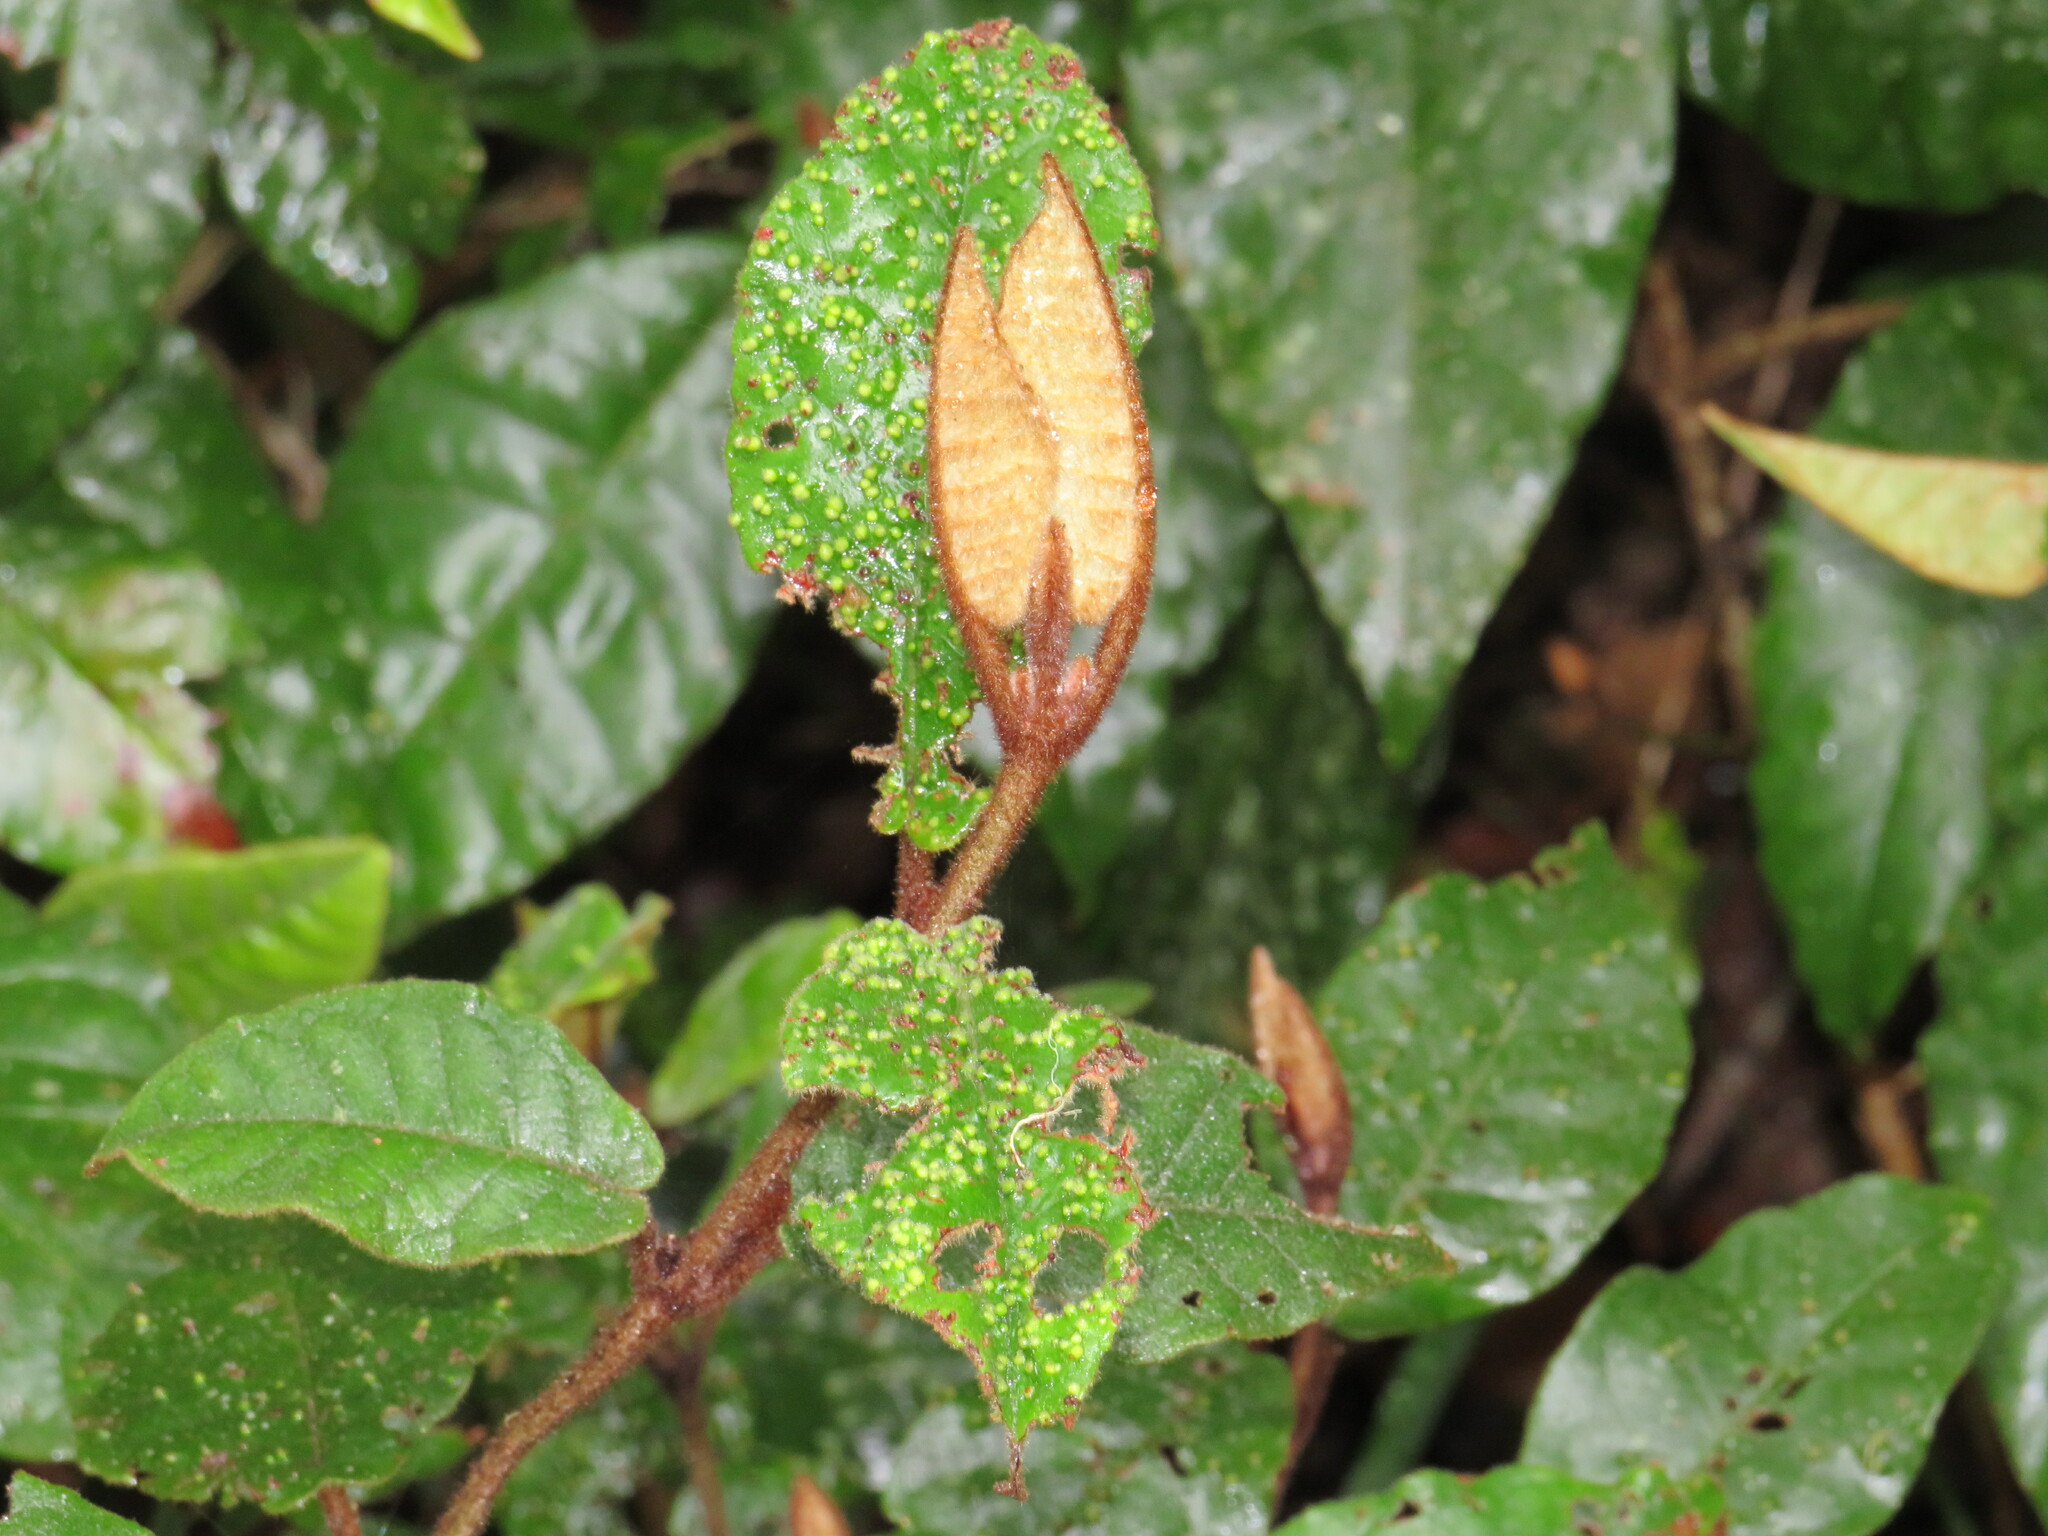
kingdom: Plantae
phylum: Tracheophyta
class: Magnoliopsida
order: Saxifragales
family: Hamamelidaceae
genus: Trichocladus
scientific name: Trichocladus crinitus
